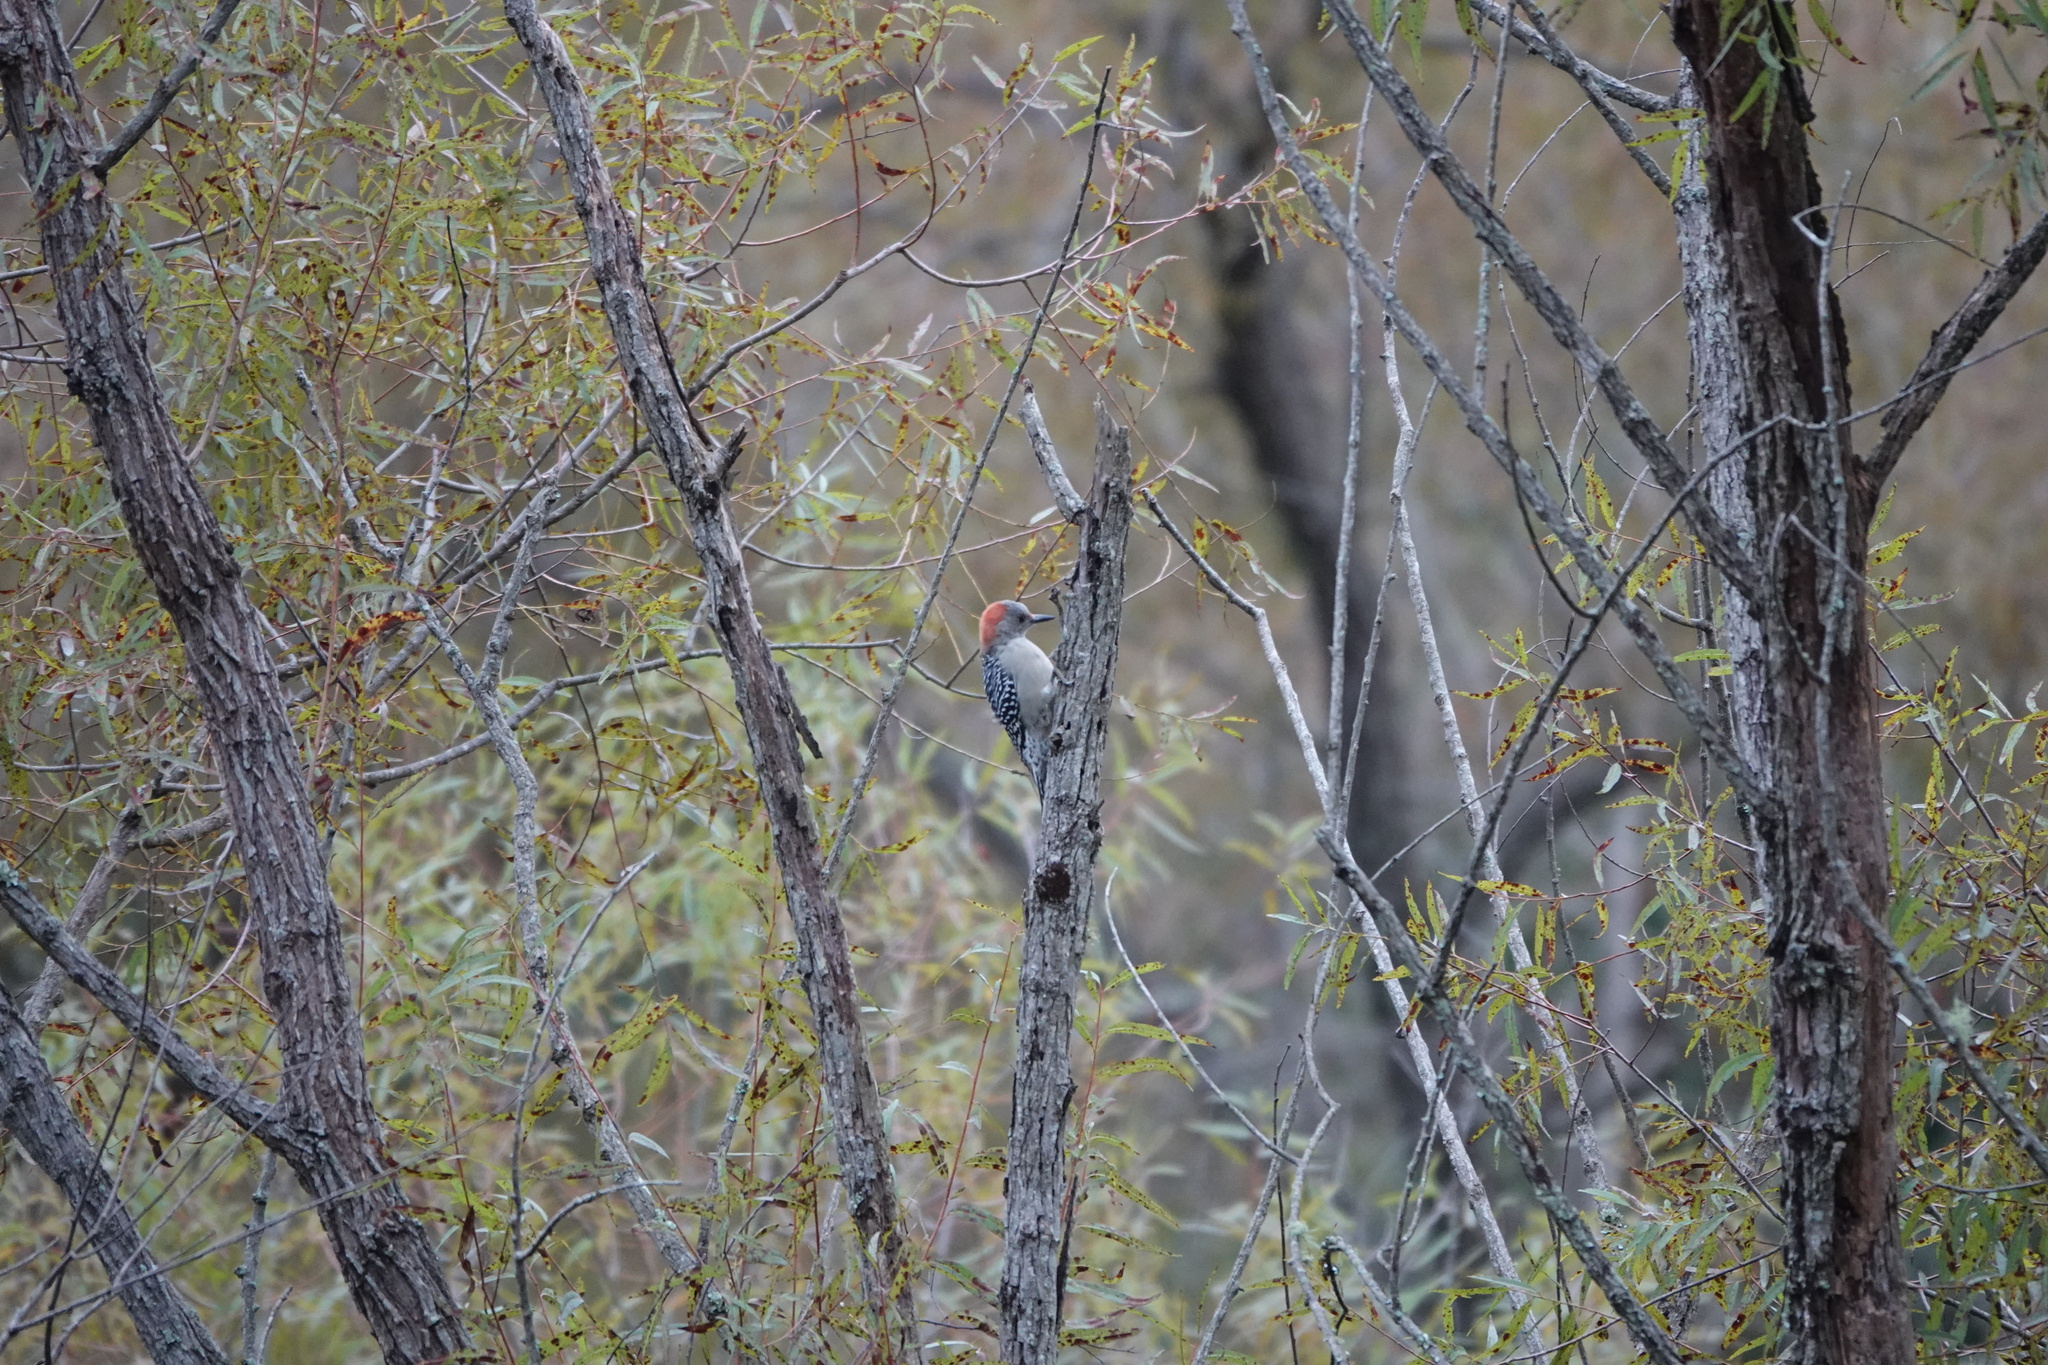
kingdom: Animalia
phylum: Chordata
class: Aves
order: Piciformes
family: Picidae
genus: Melanerpes
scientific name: Melanerpes carolinus
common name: Red-bellied woodpecker
